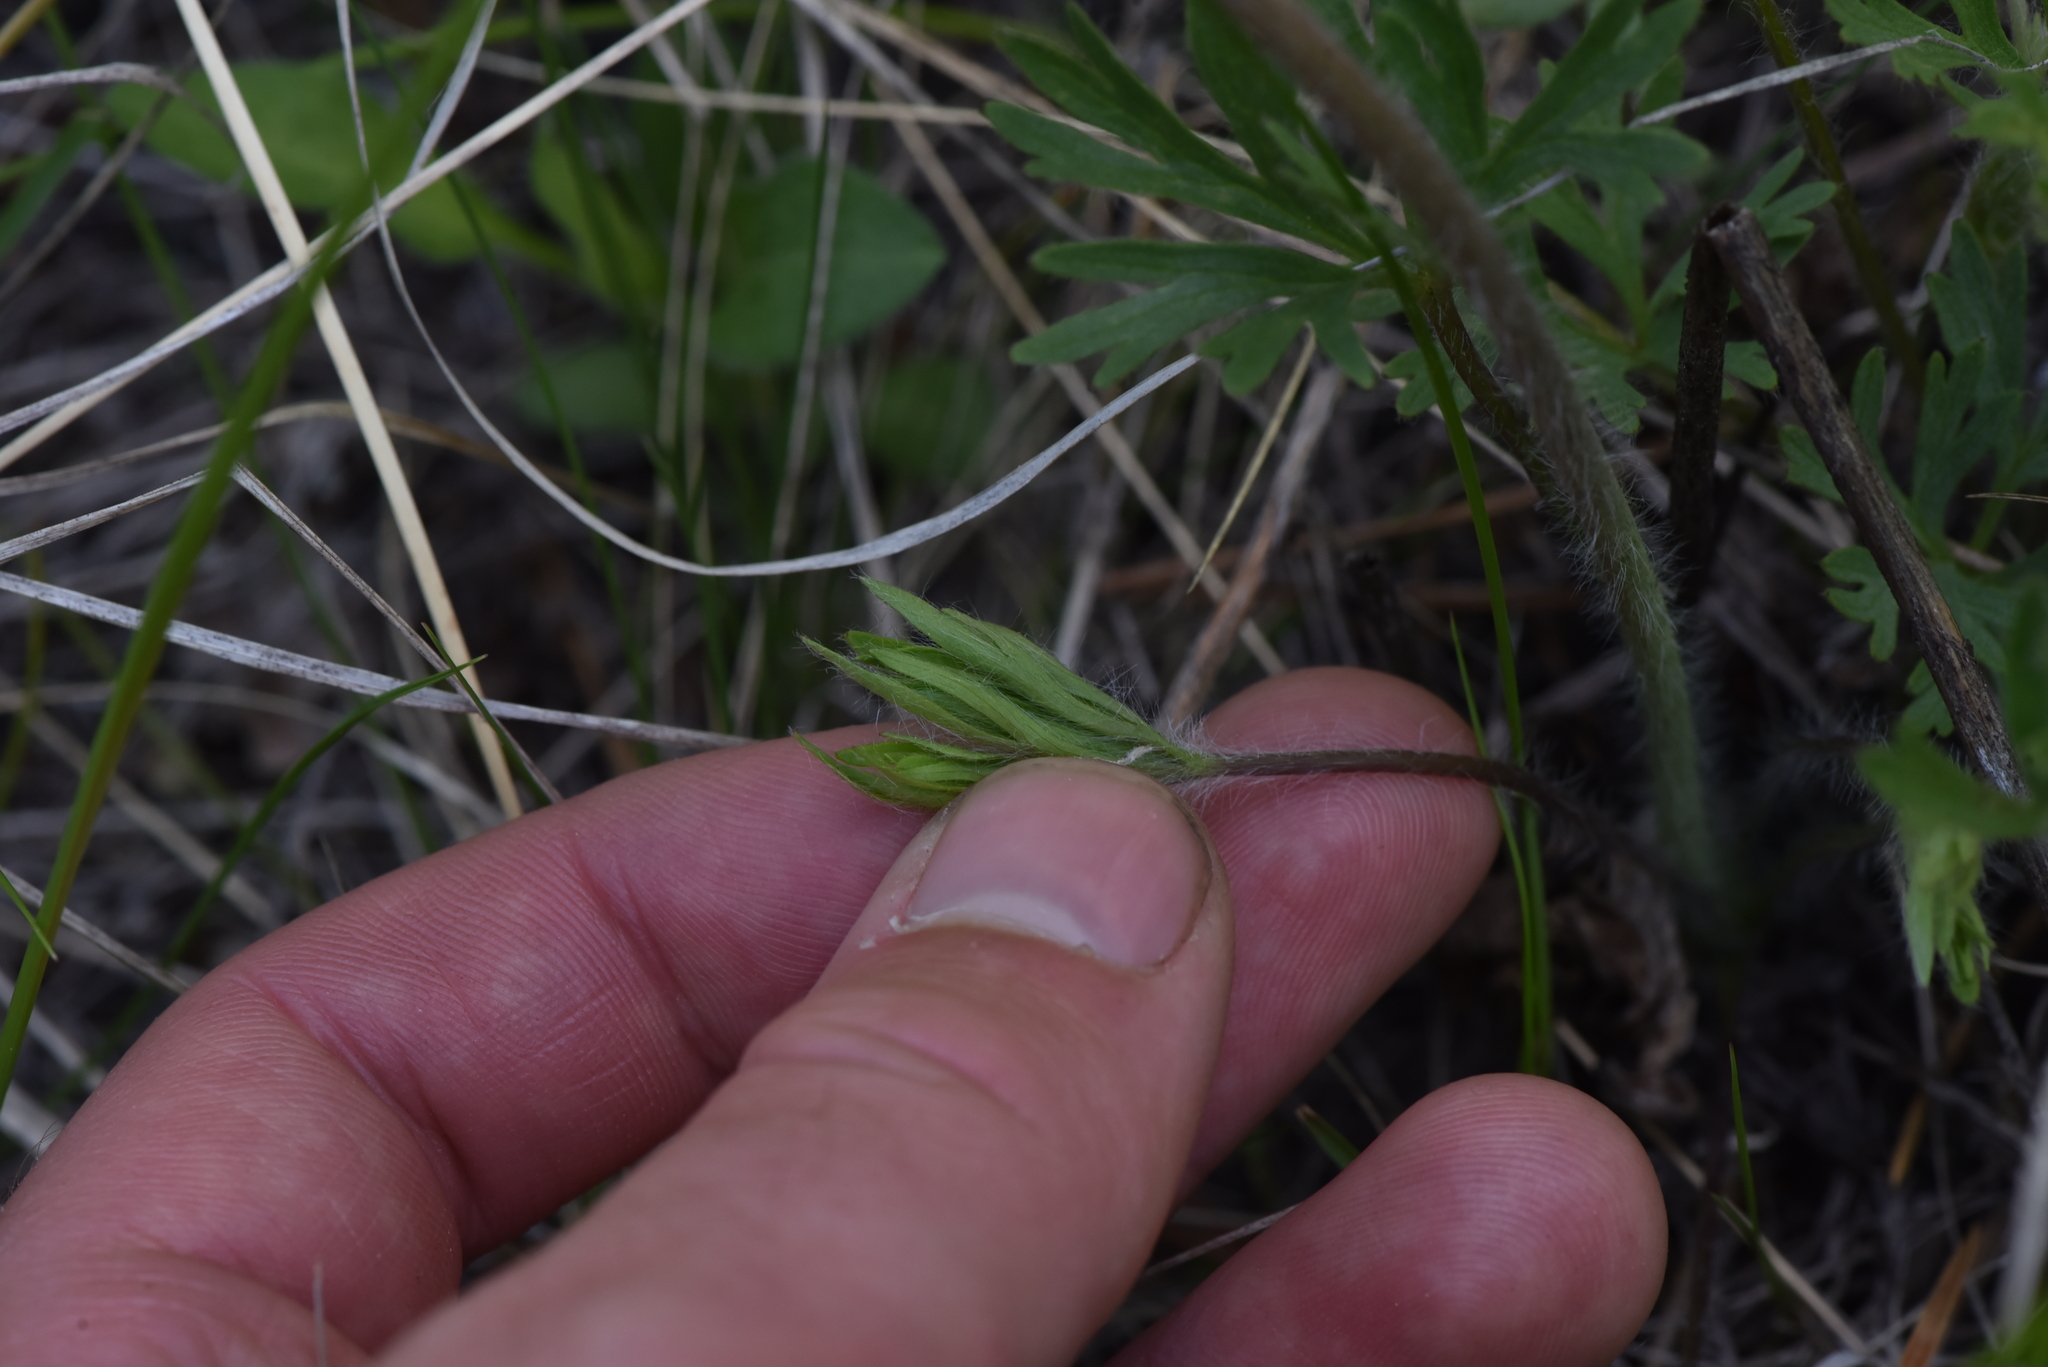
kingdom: Plantae
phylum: Tracheophyta
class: Magnoliopsida
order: Ranunculales
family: Ranunculaceae
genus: Anemone
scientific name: Anemone multifida
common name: Bird's-foot anemone
